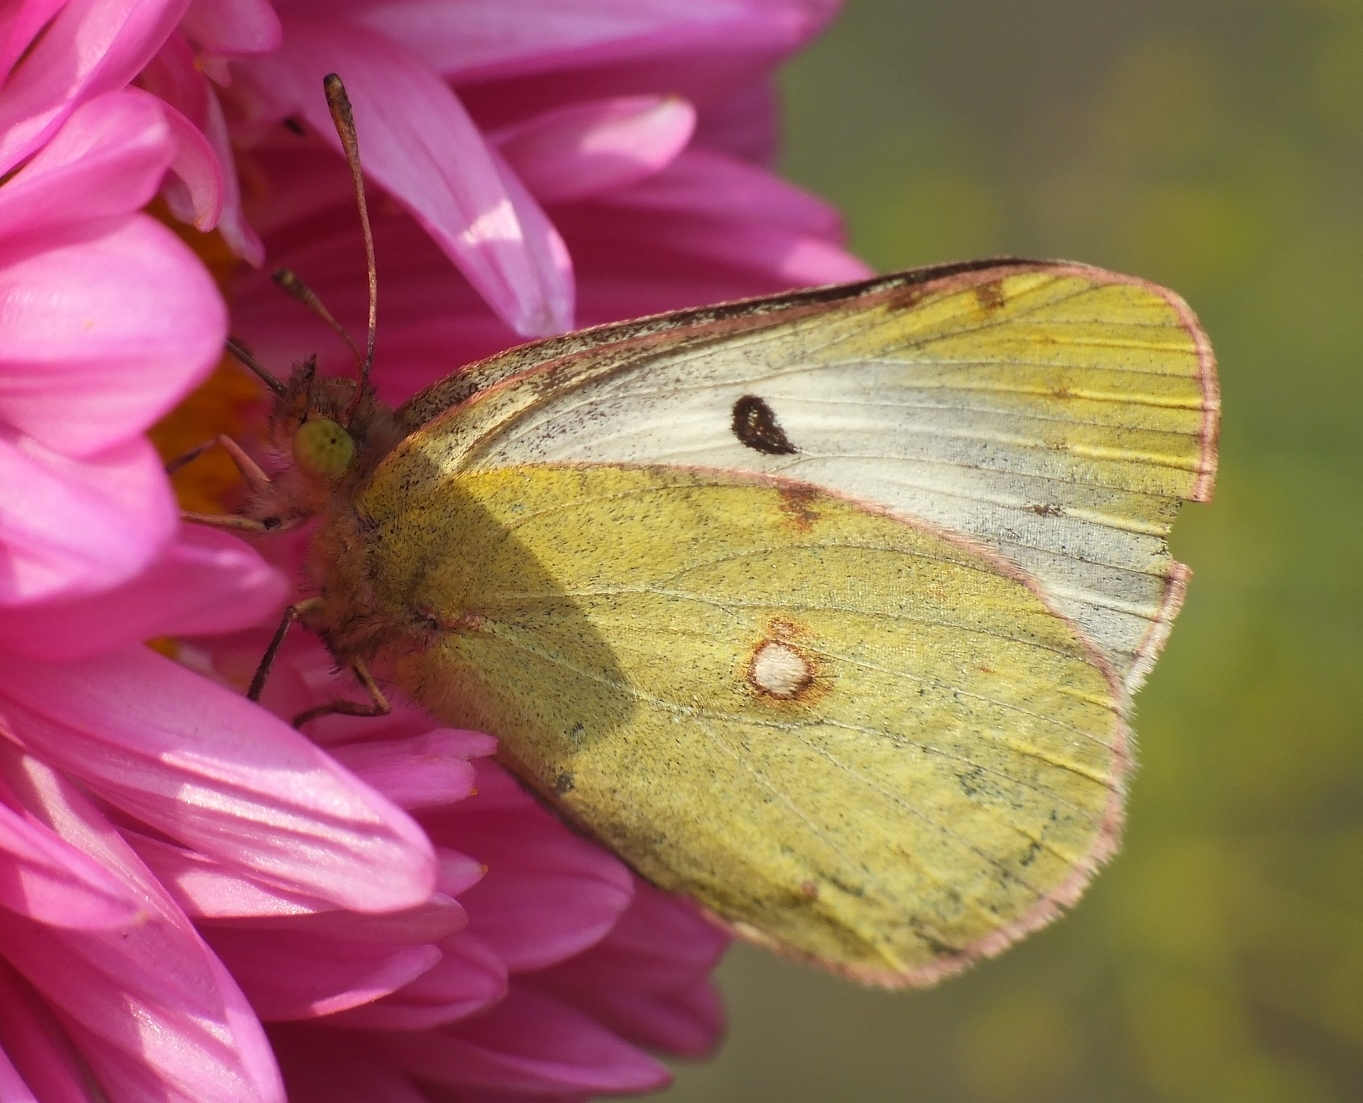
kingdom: Animalia
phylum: Arthropoda
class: Insecta
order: Lepidoptera
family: Pieridae
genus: Colias
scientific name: Colias erate
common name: Eastern pale clouded yellow
